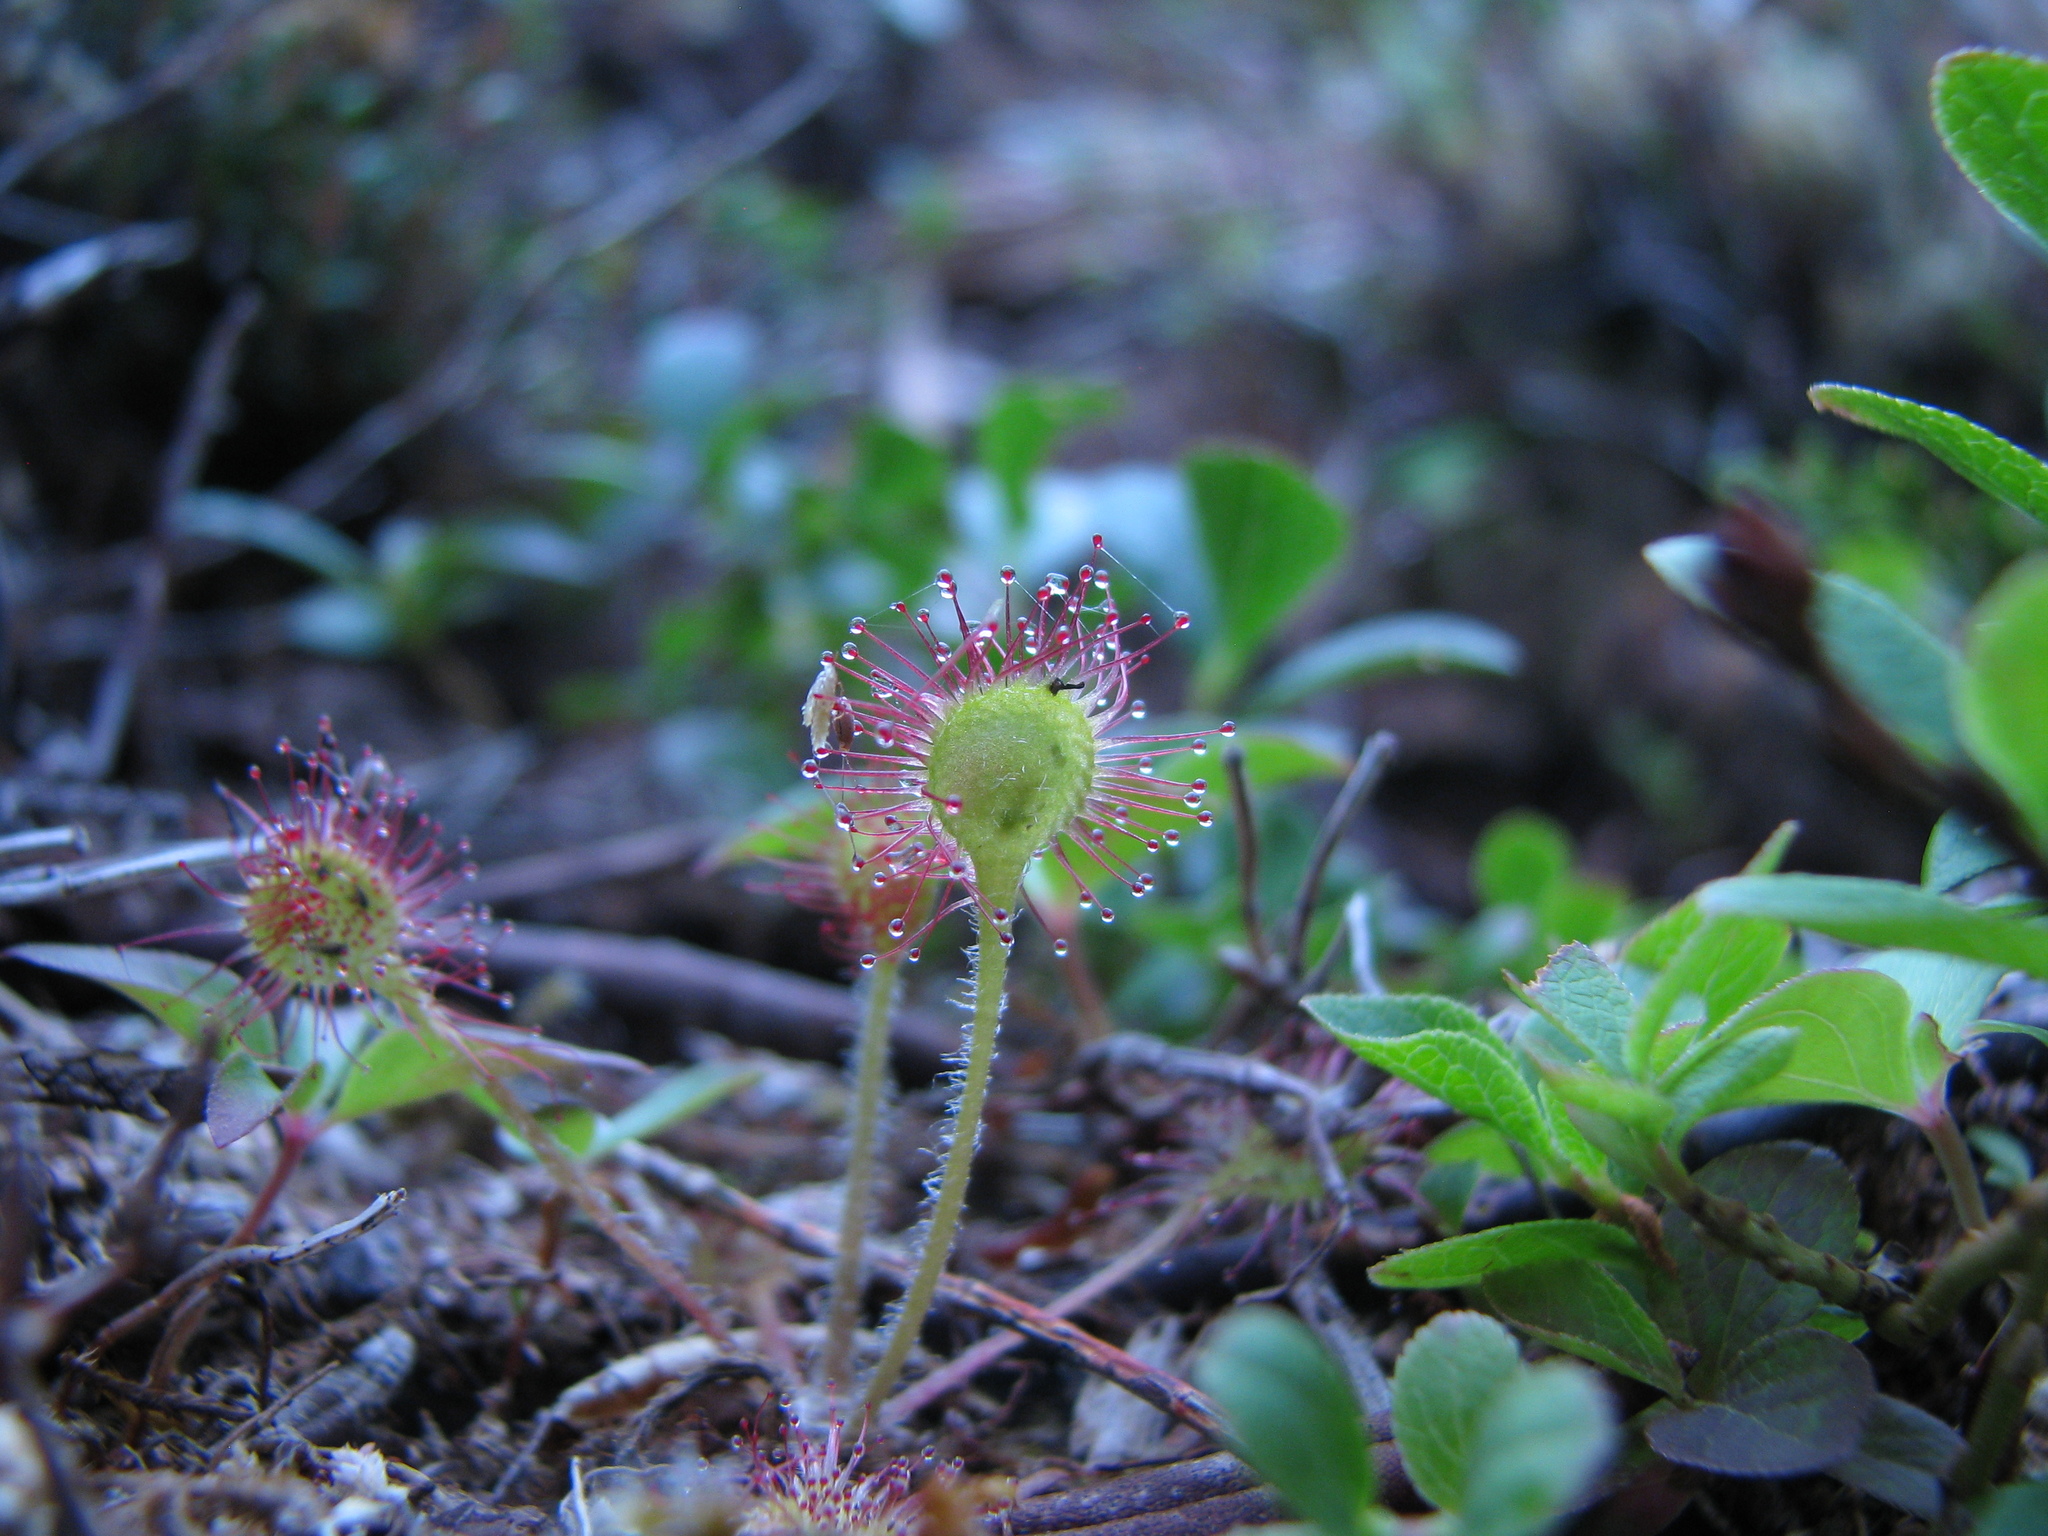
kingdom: Plantae
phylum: Tracheophyta
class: Magnoliopsida
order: Caryophyllales
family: Droseraceae
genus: Drosera
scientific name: Drosera rotundifolia
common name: Round-leaved sundew
